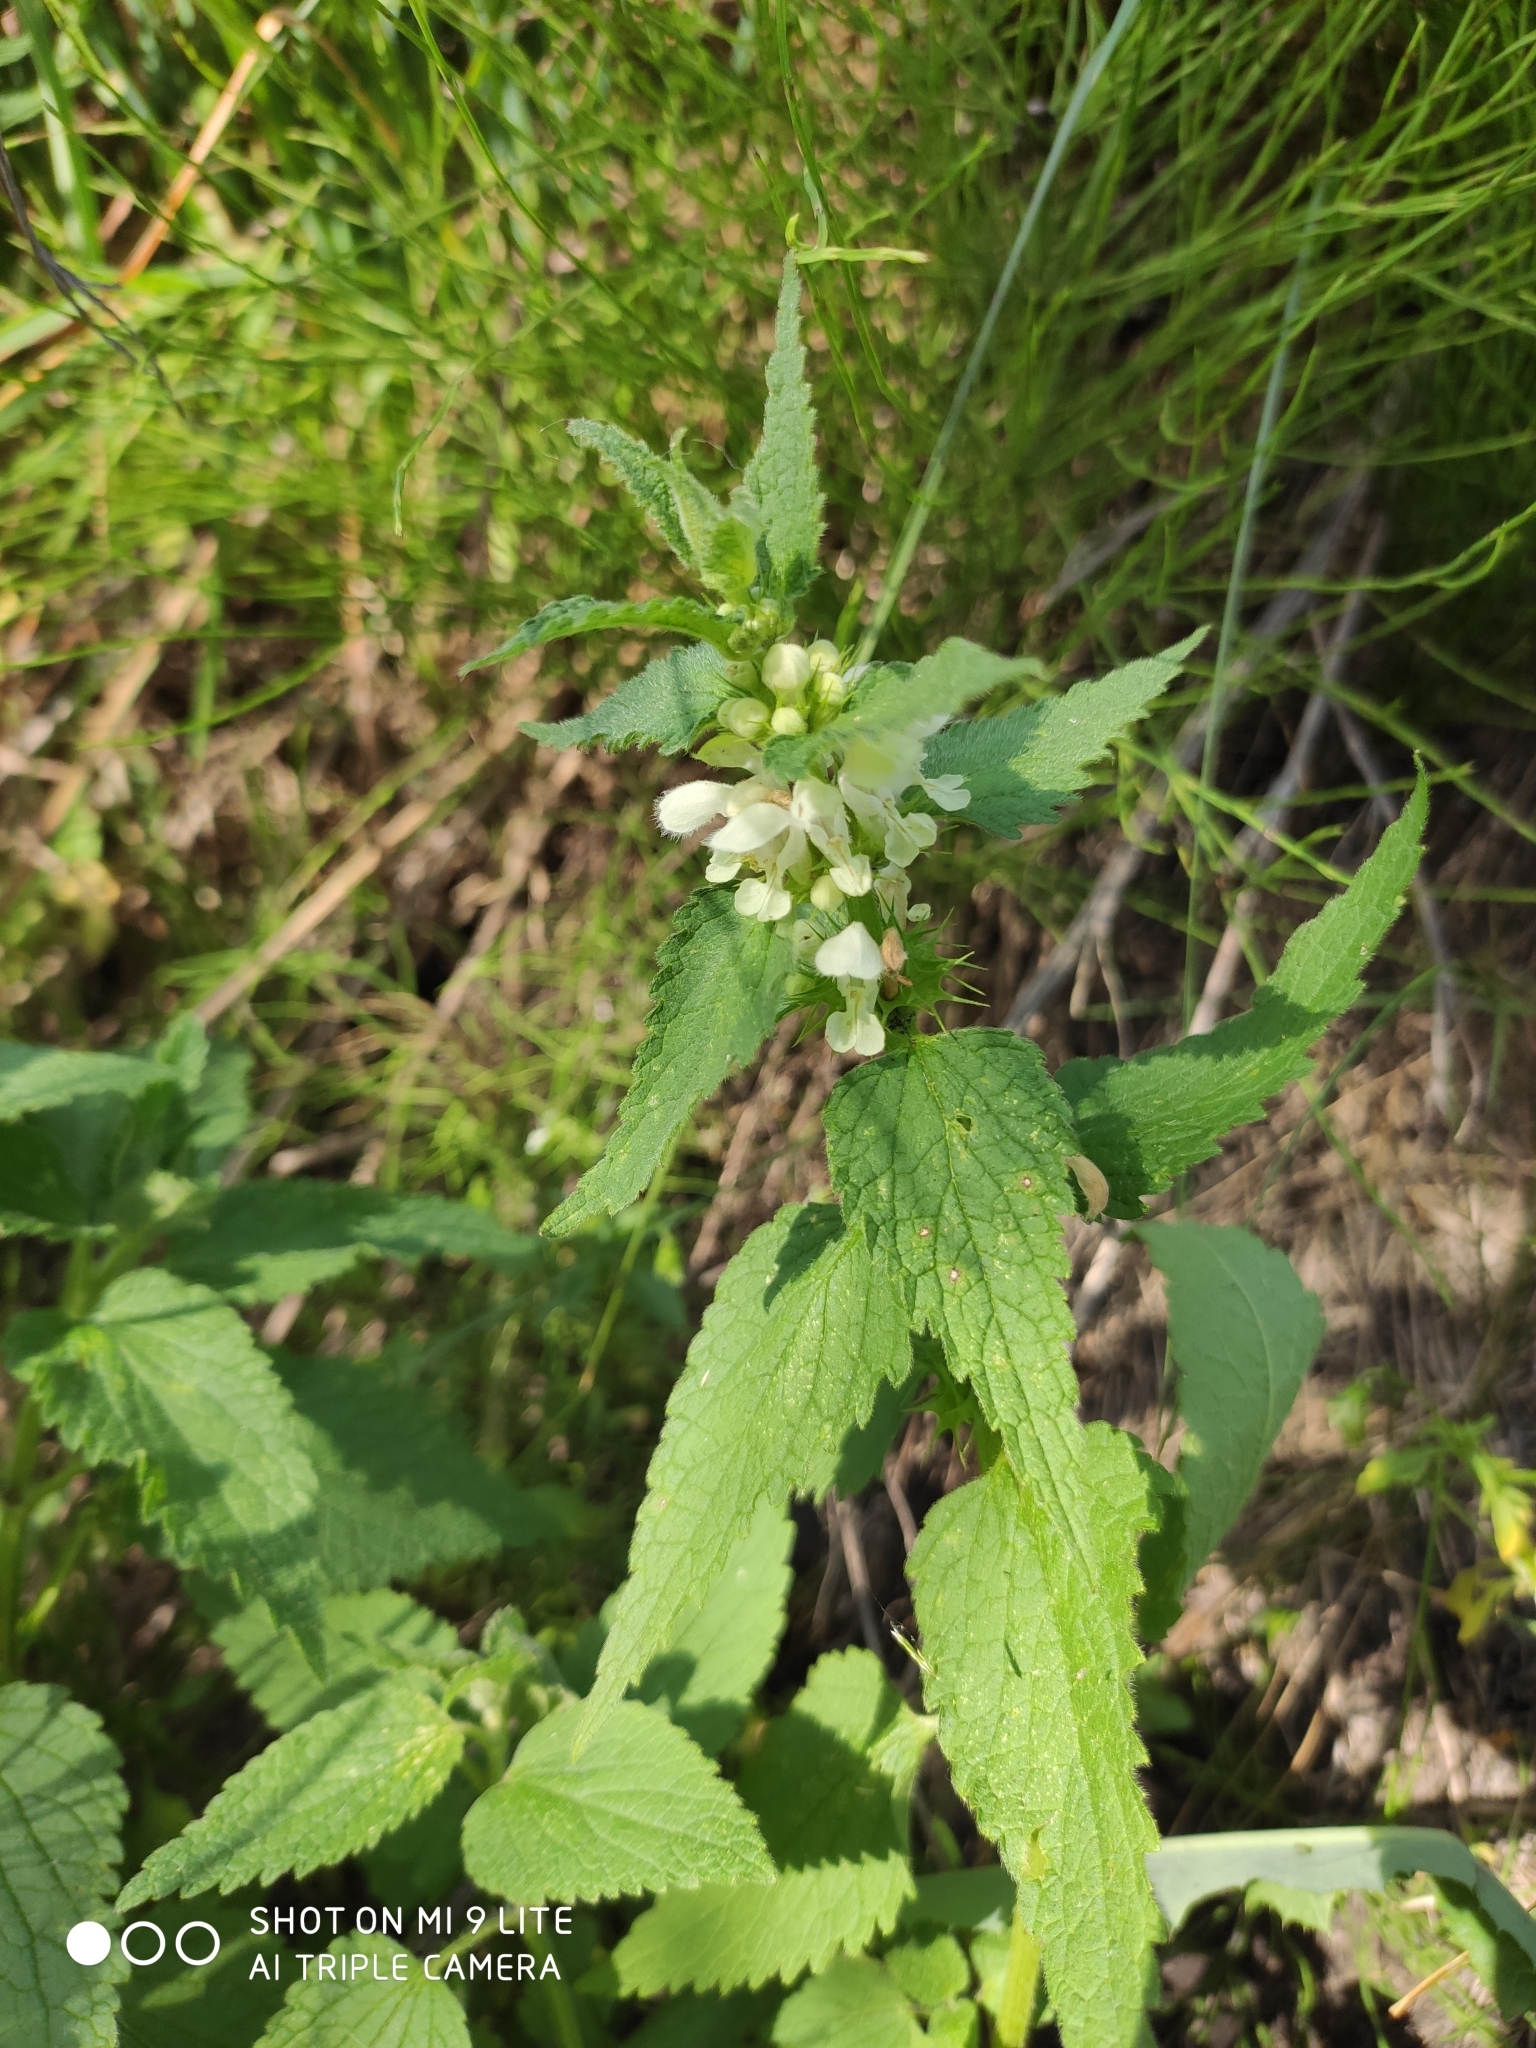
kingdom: Plantae
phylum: Tracheophyta
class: Magnoliopsida
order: Lamiales
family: Lamiaceae
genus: Lamium
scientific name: Lamium album
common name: White dead-nettle
